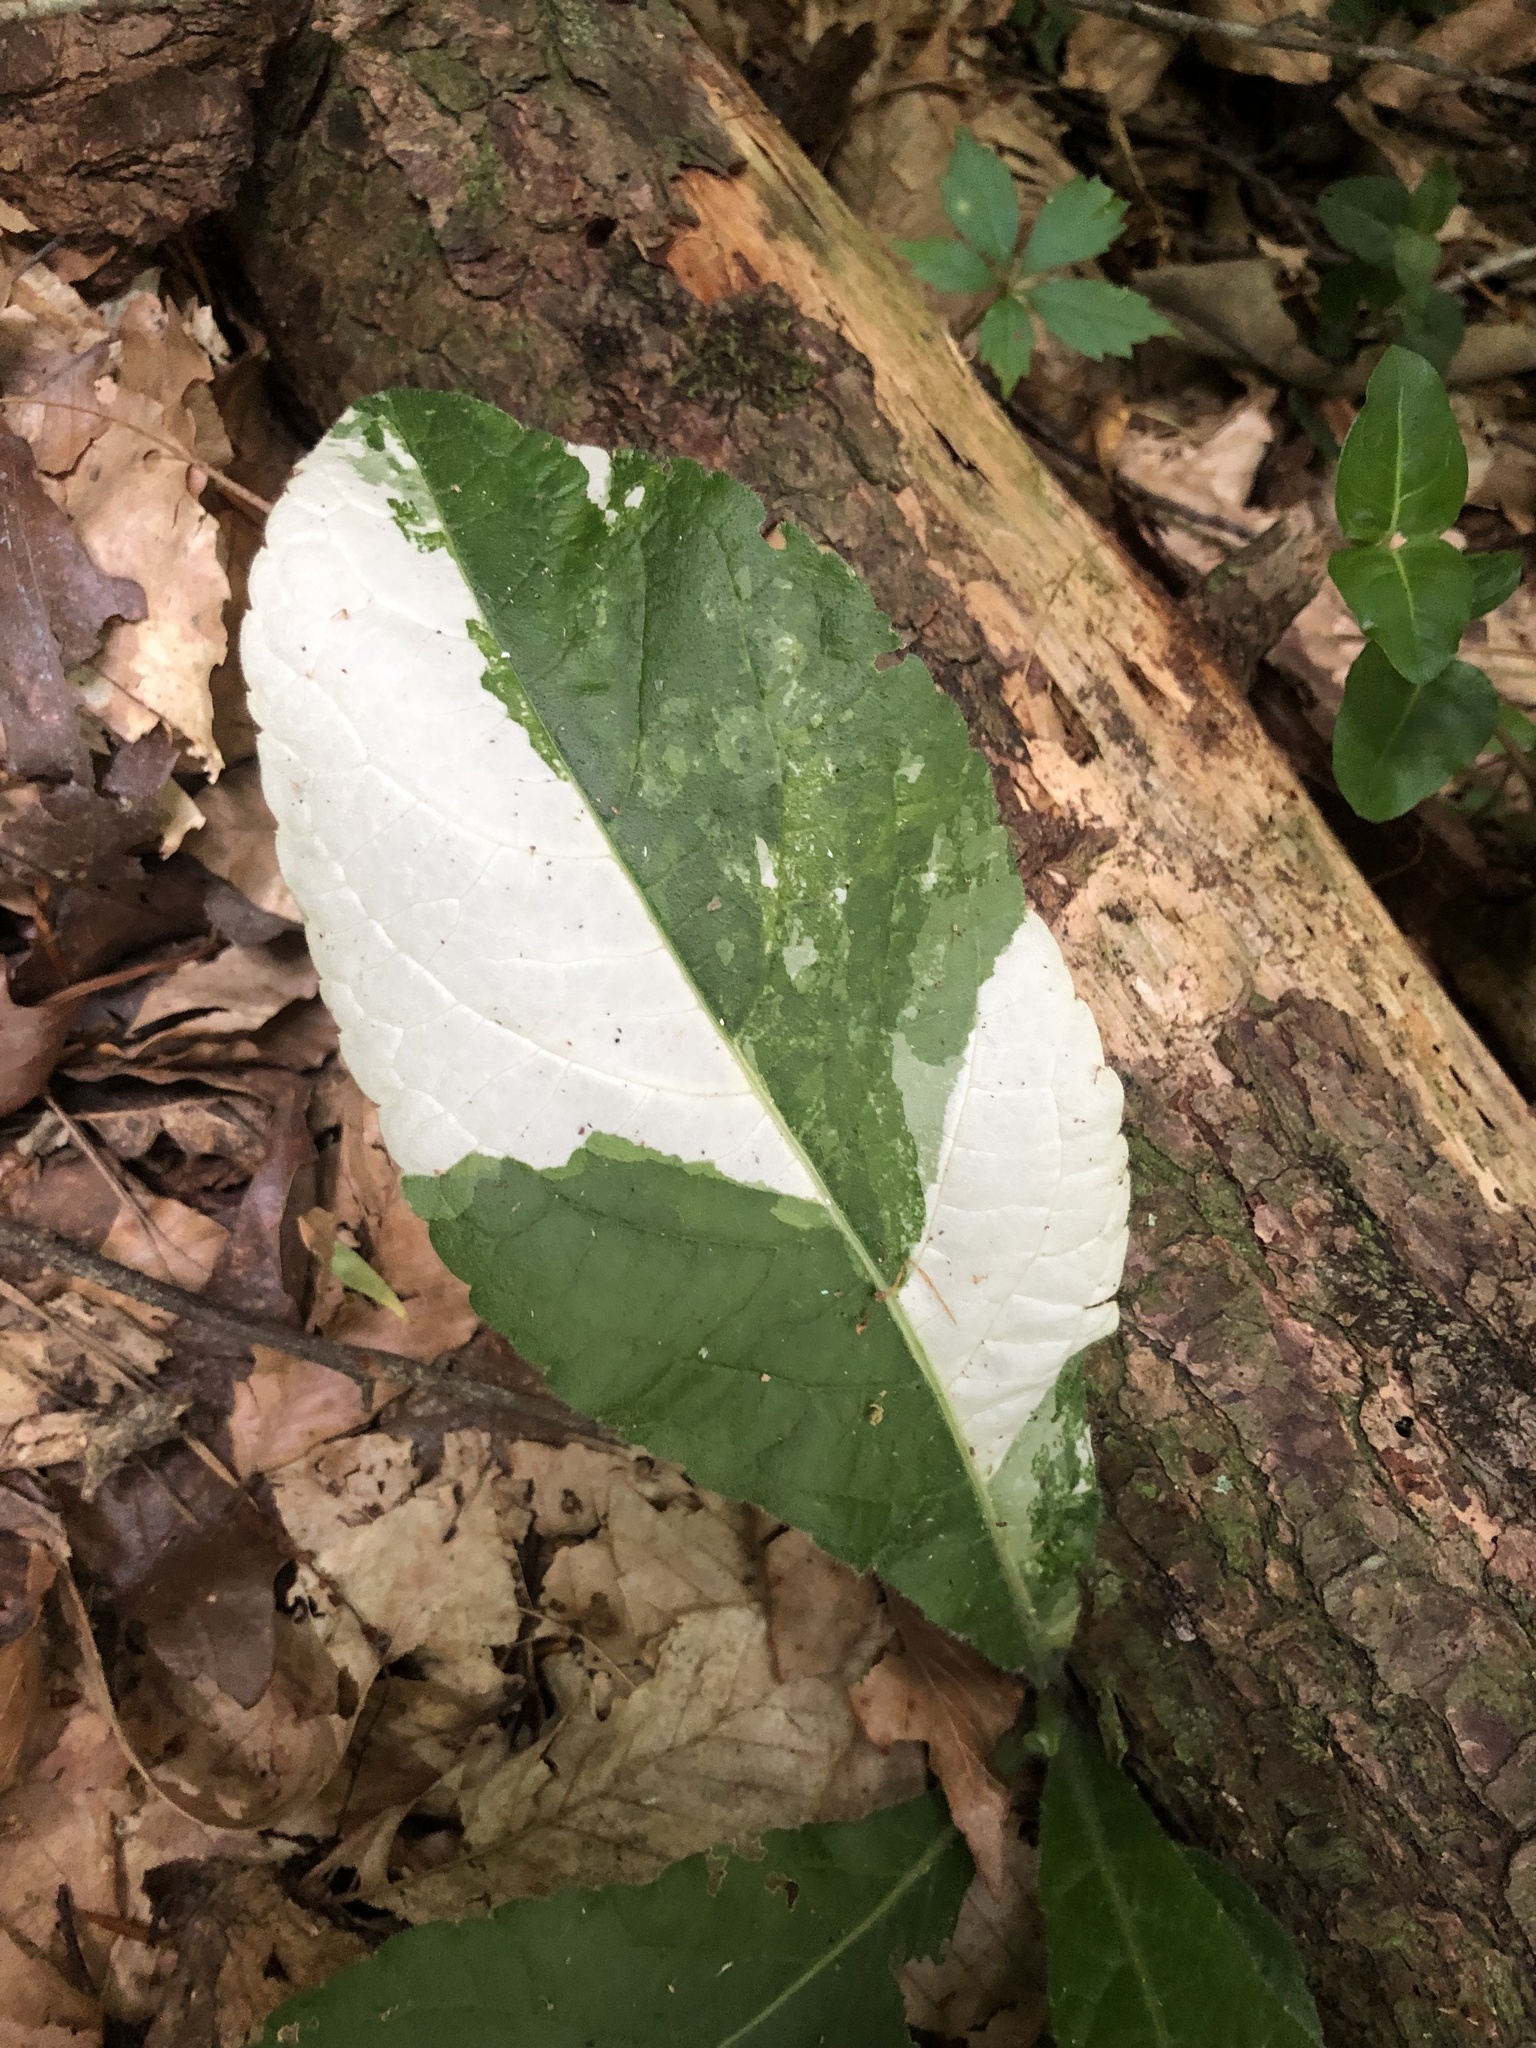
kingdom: Plantae
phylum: Tracheophyta
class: Magnoliopsida
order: Asterales
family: Asteraceae
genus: Elephantopus
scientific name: Elephantopus tomentosus
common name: Tobacco-weed
